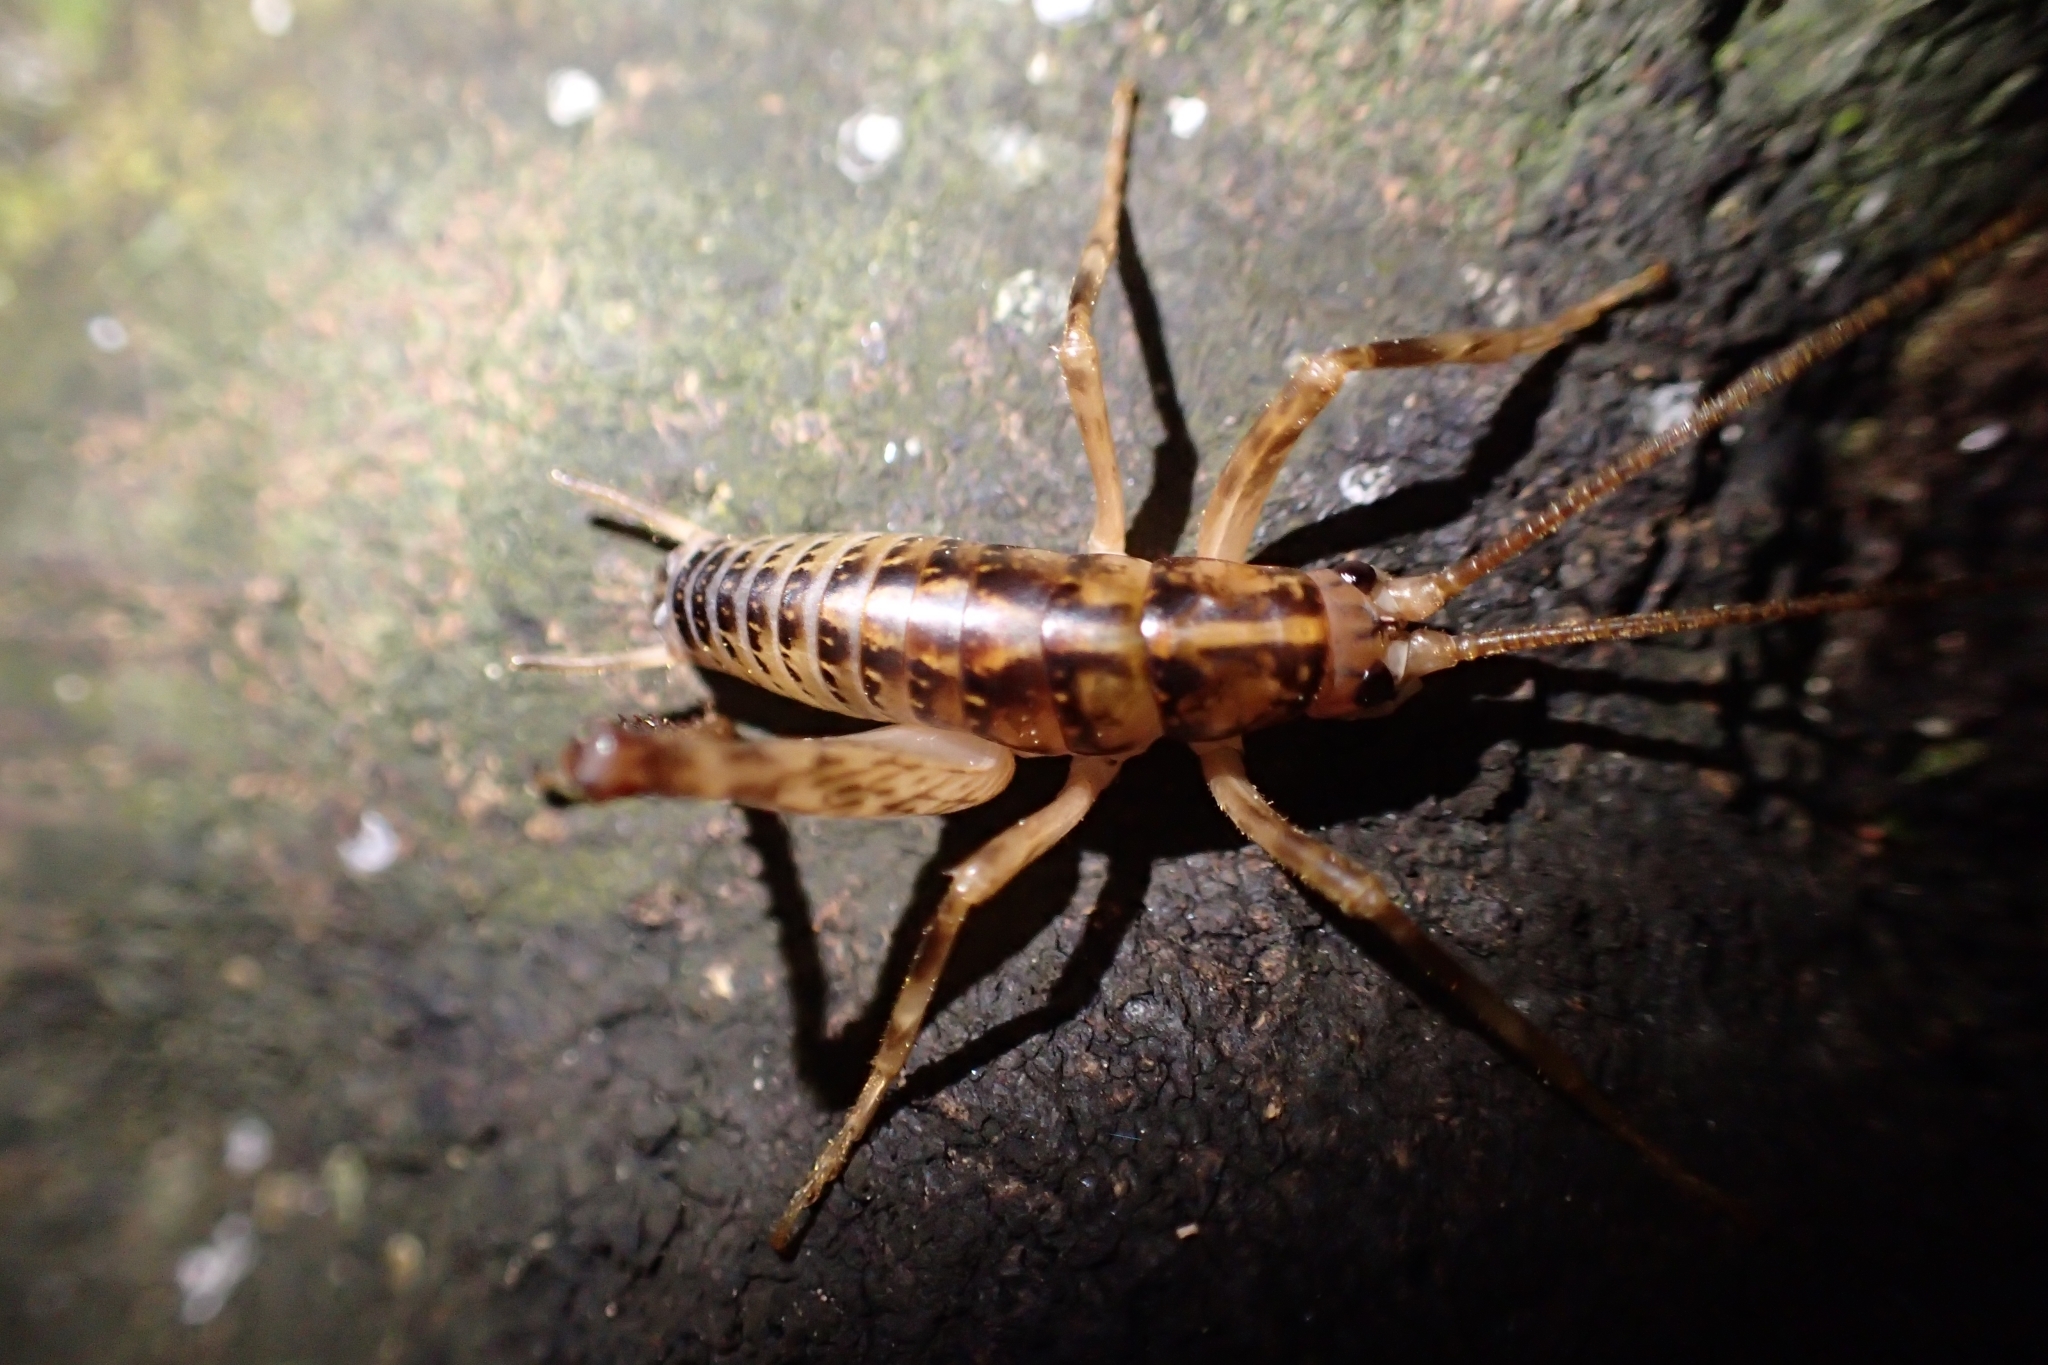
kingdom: Animalia
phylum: Arthropoda
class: Insecta
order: Orthoptera
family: Rhaphidophoridae
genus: Talitropsis
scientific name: Talitropsis sedilloti
